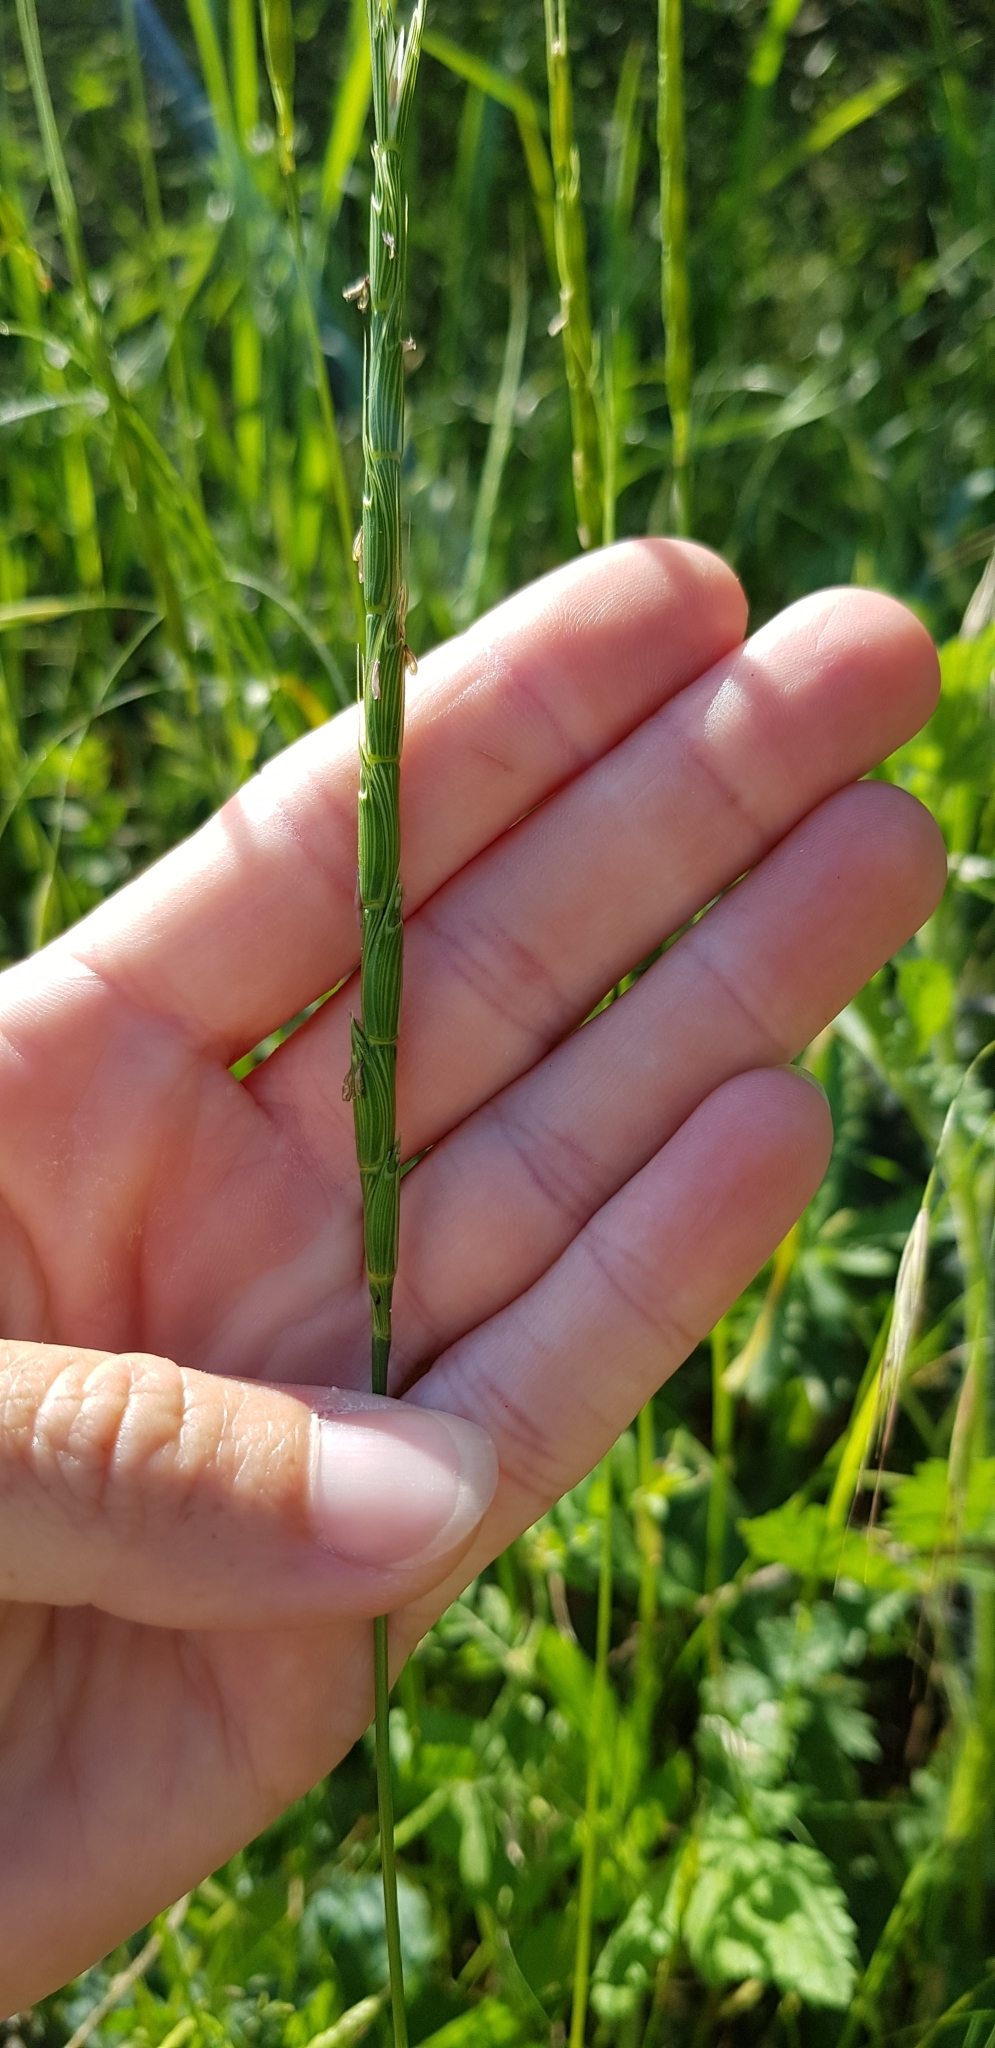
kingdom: Plantae
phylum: Tracheophyta
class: Liliopsida
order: Poales
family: Poaceae
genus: Aegilops
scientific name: Aegilops cylindrica
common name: Jointed goatgrass
